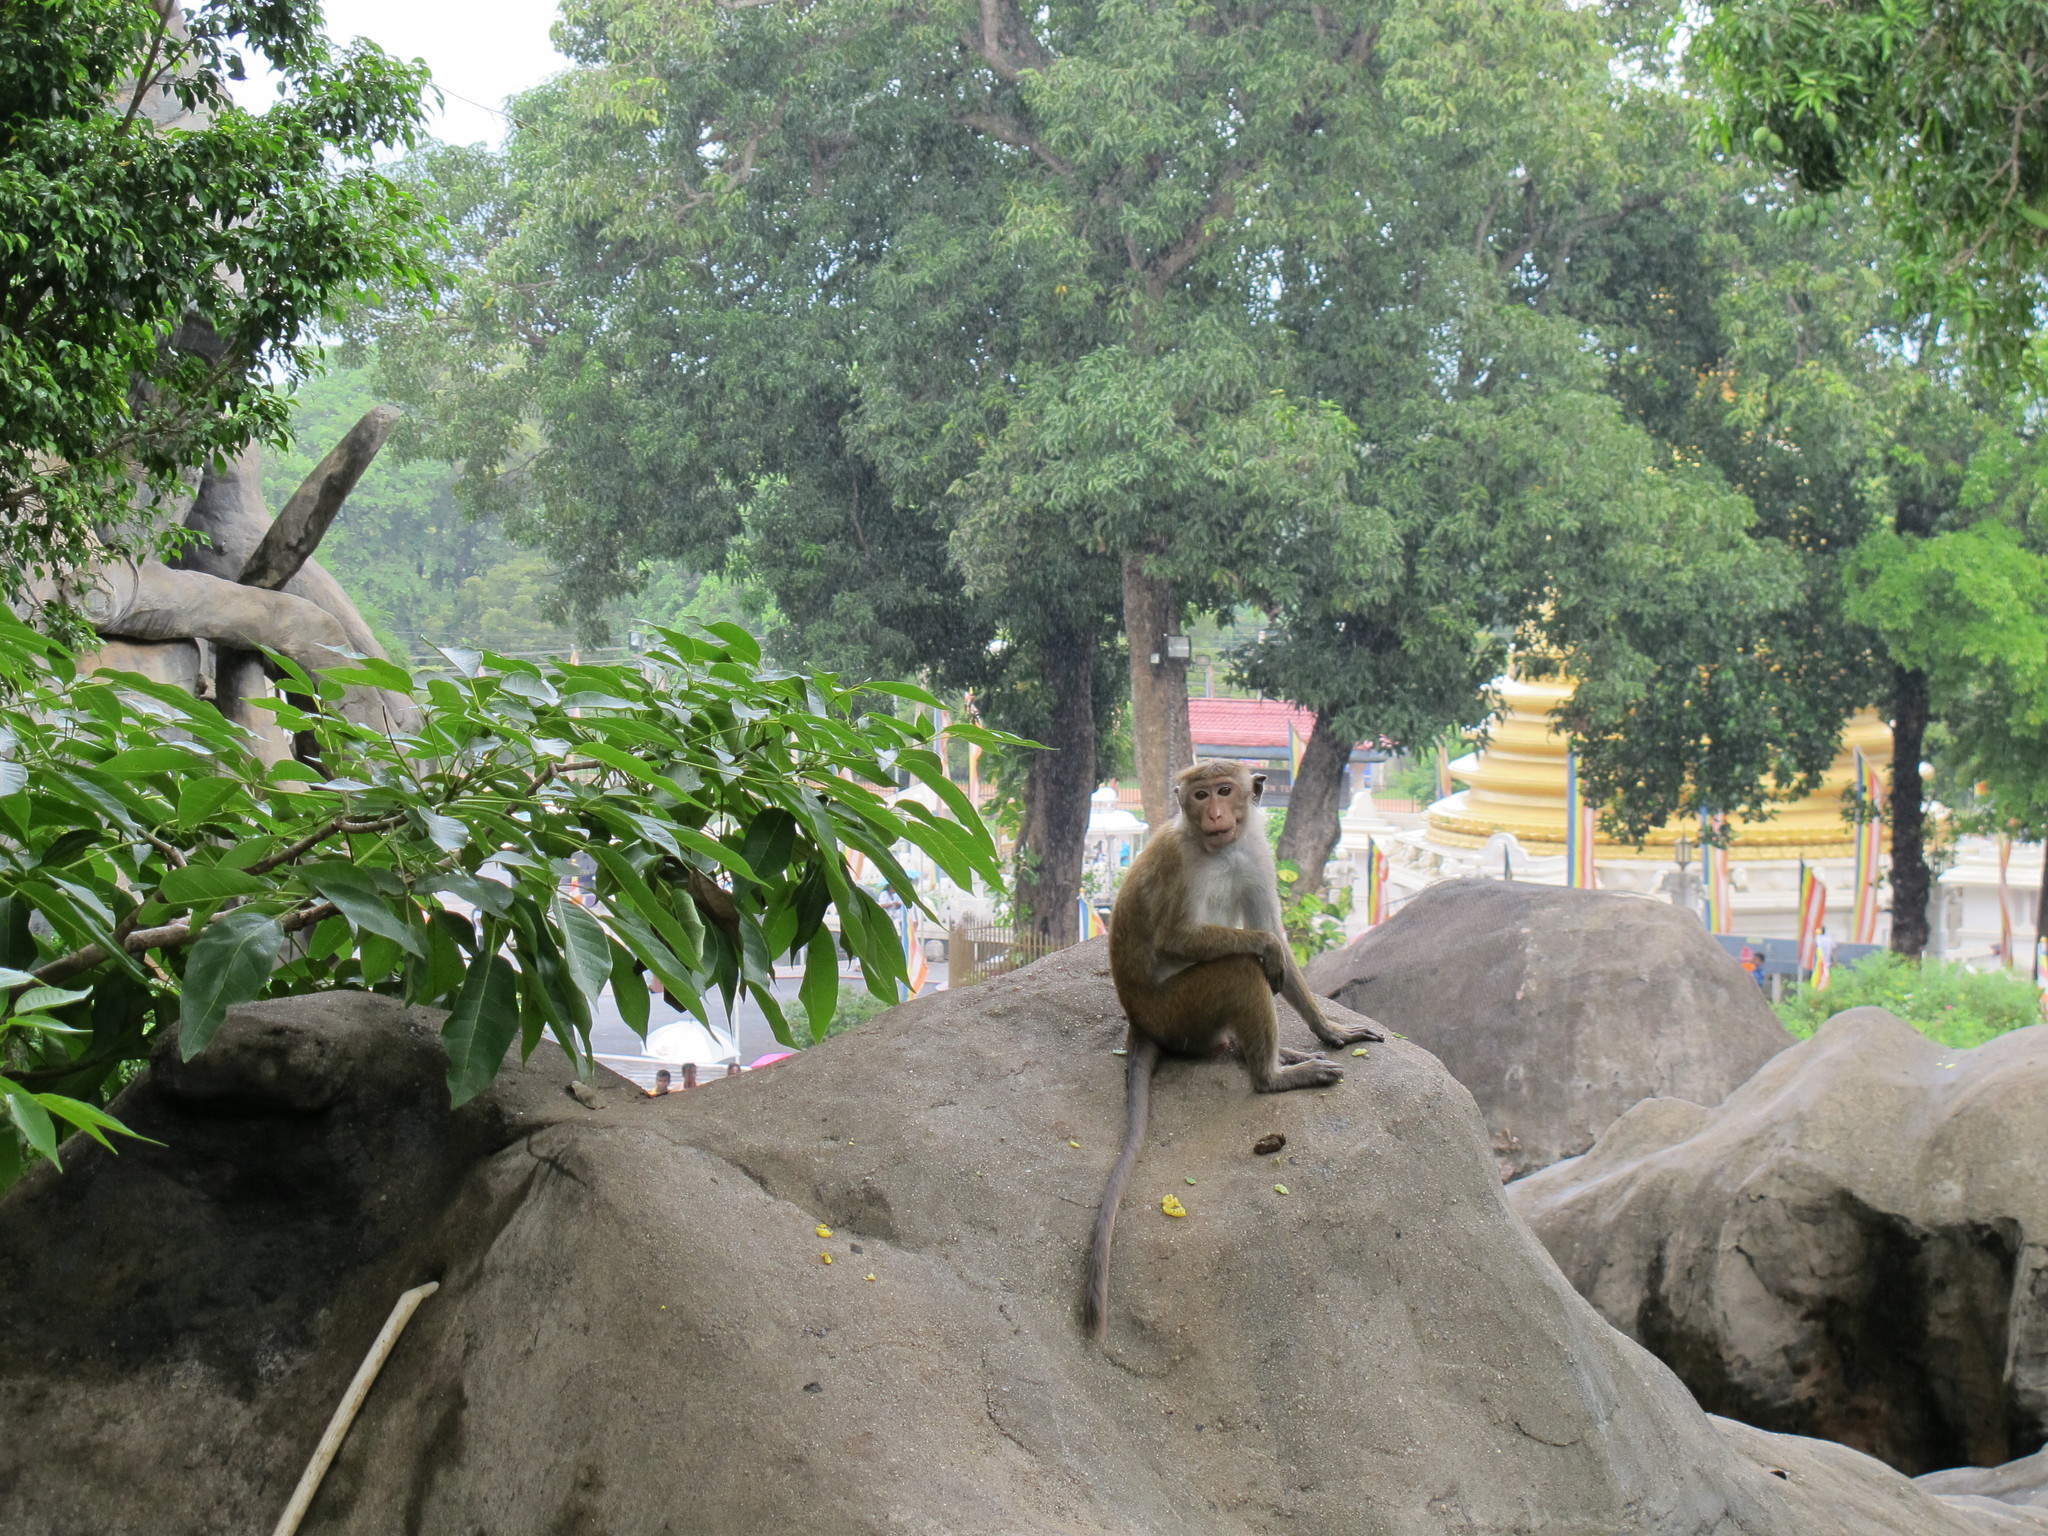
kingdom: Animalia
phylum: Chordata
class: Mammalia
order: Primates
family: Cercopithecidae
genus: Macaca
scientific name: Macaca sinica
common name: Toque macaque
